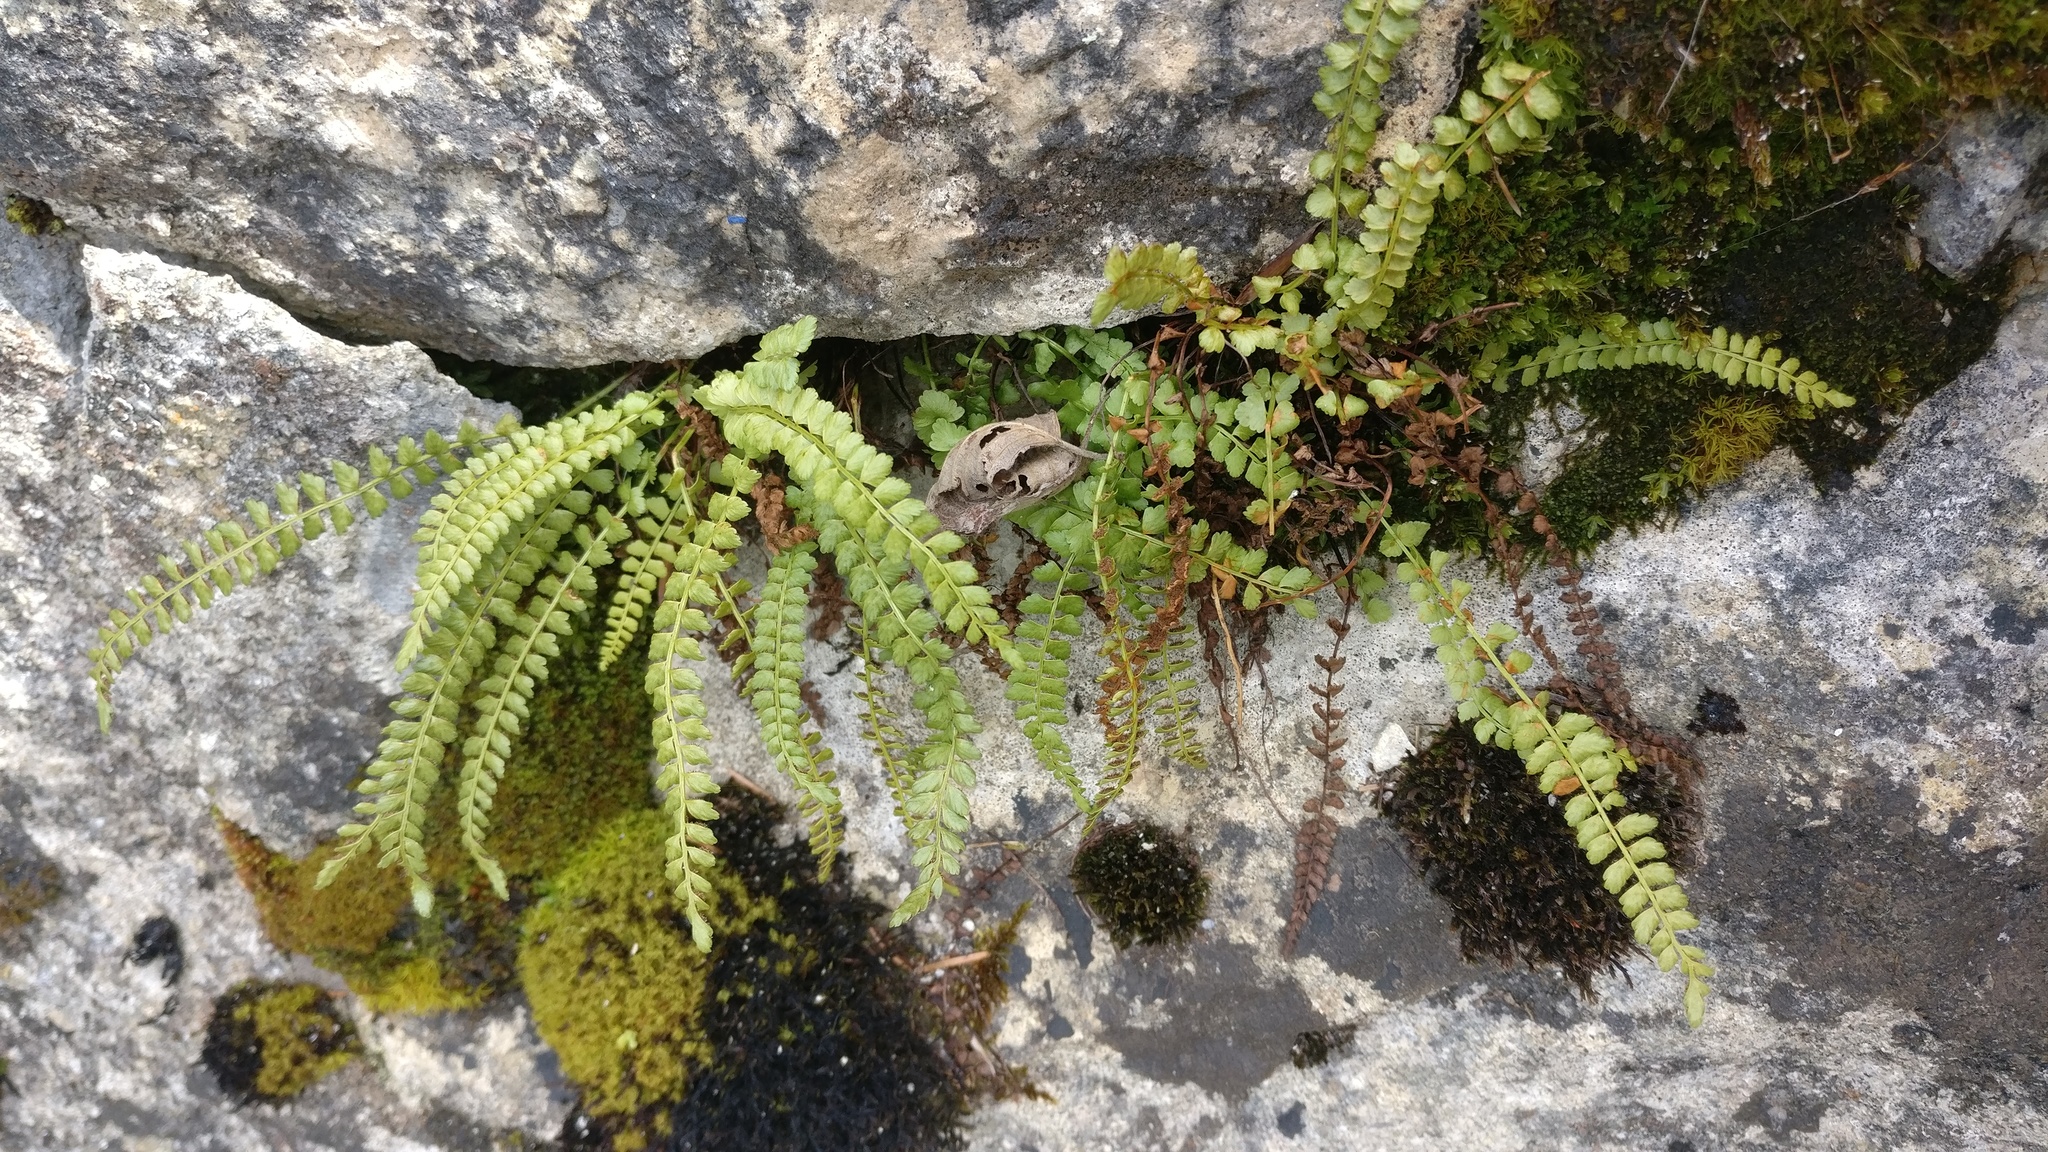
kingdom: Plantae
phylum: Tracheophyta
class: Polypodiopsida
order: Polypodiales
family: Aspleniaceae
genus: Asplenium
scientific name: Asplenium viride
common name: Green spleenwort
